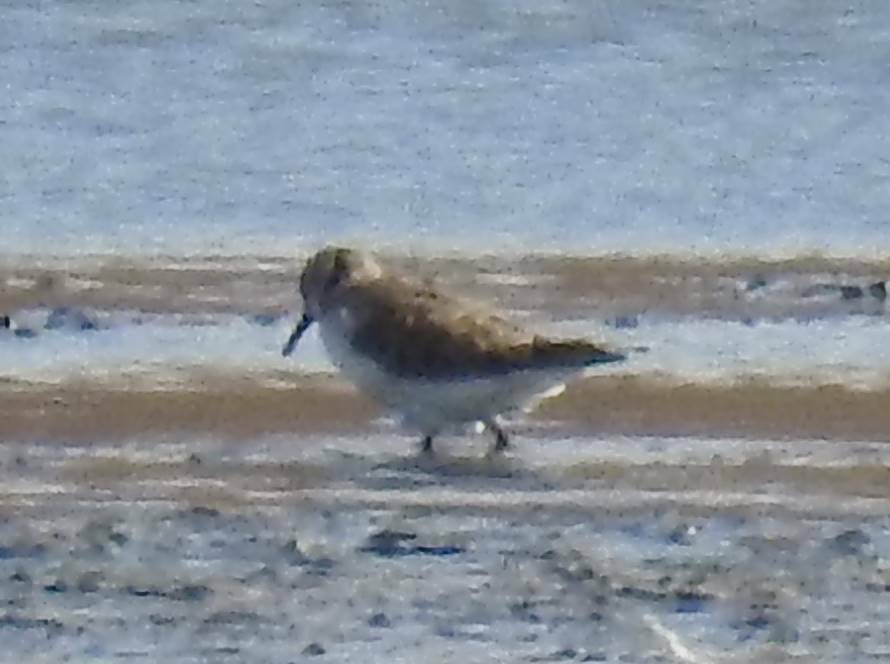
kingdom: Animalia
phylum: Chordata
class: Aves
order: Charadriiformes
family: Scolopacidae
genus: Calidris
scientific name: Calidris minuta
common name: Little stint
